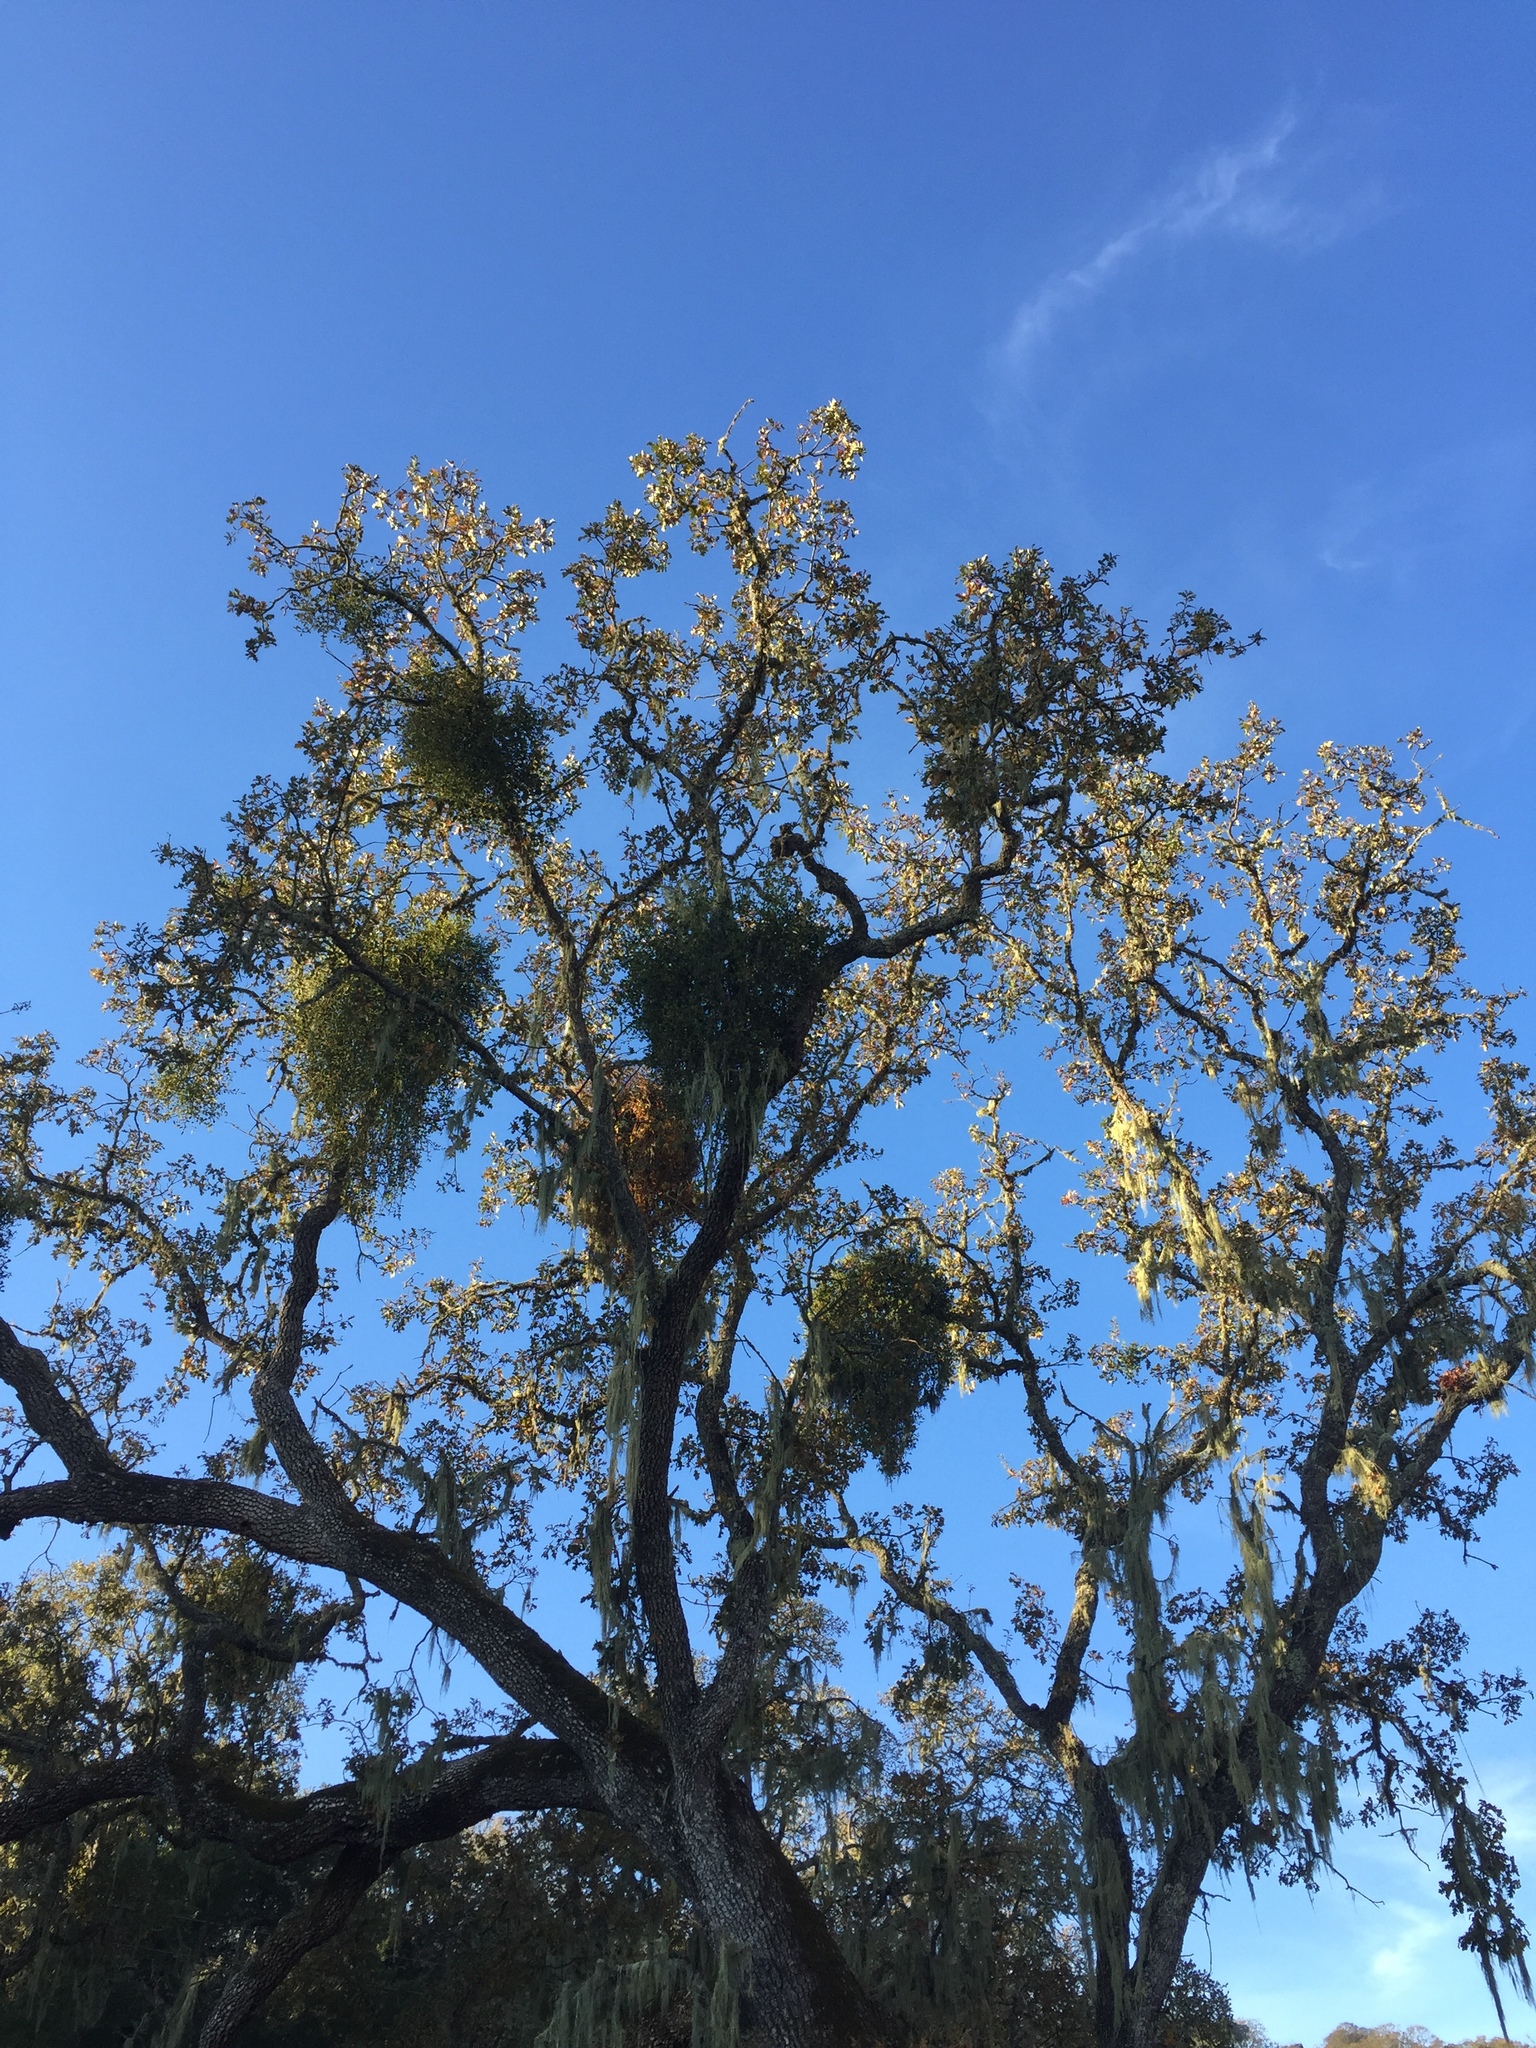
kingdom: Plantae
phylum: Tracheophyta
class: Magnoliopsida
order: Fagales
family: Fagaceae
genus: Quercus
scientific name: Quercus lobata
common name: Valley oak
